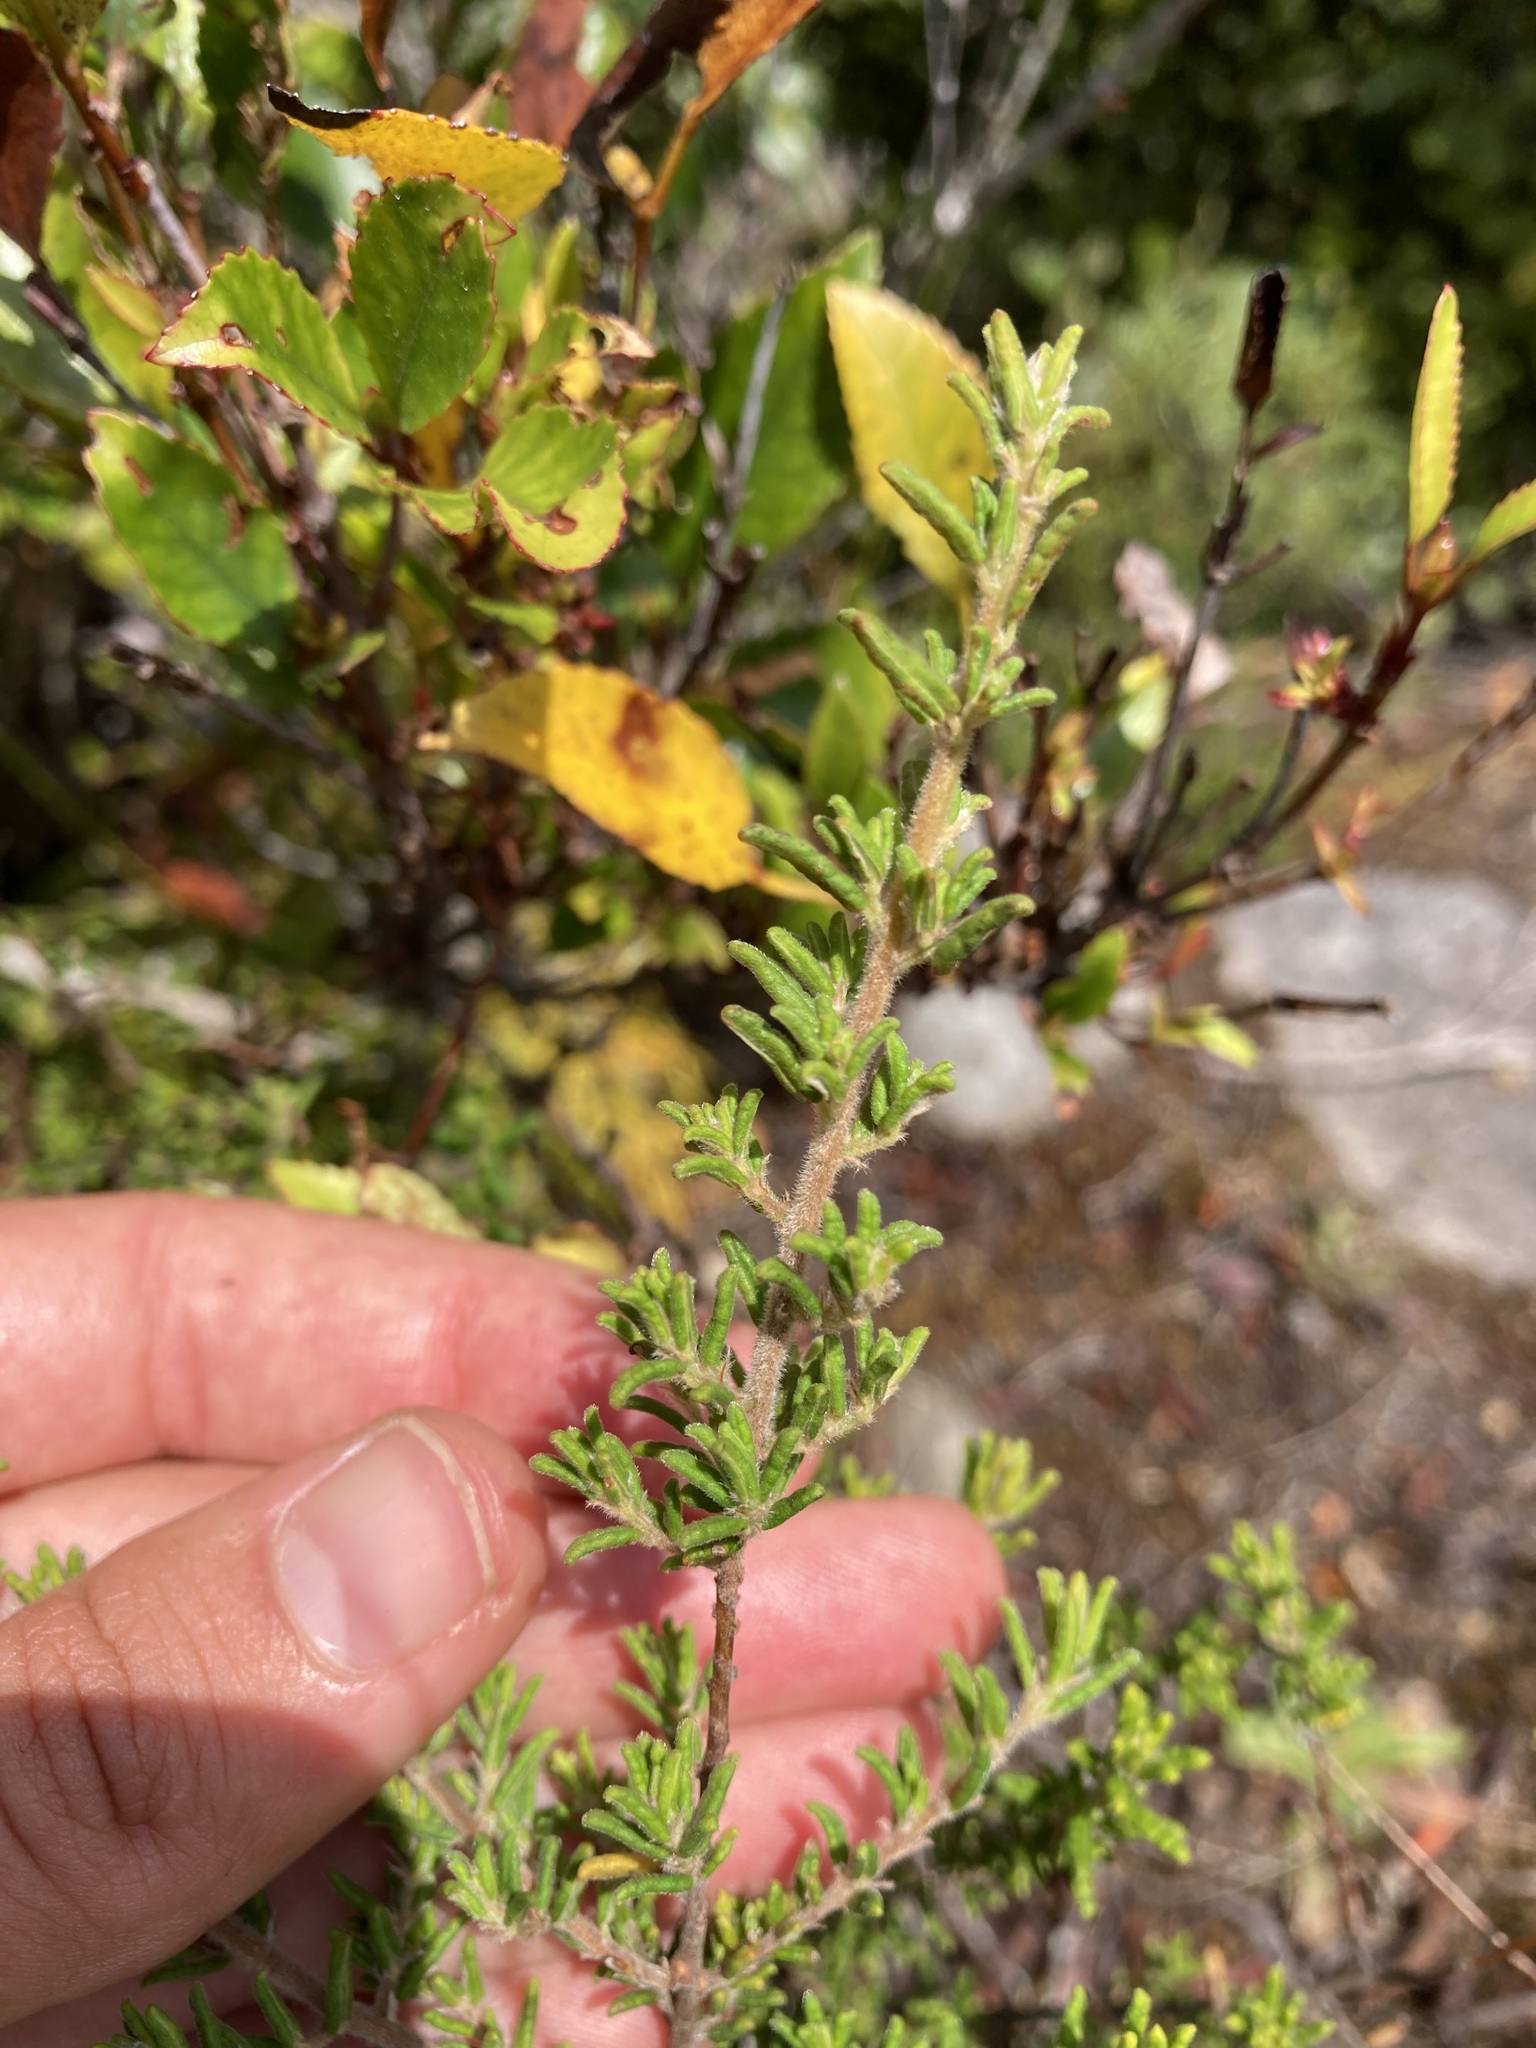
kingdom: Plantae
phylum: Tracheophyta
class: Magnoliopsida
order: Rosales
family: Rhamnaceae
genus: Pomaderris
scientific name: Pomaderris amoena
